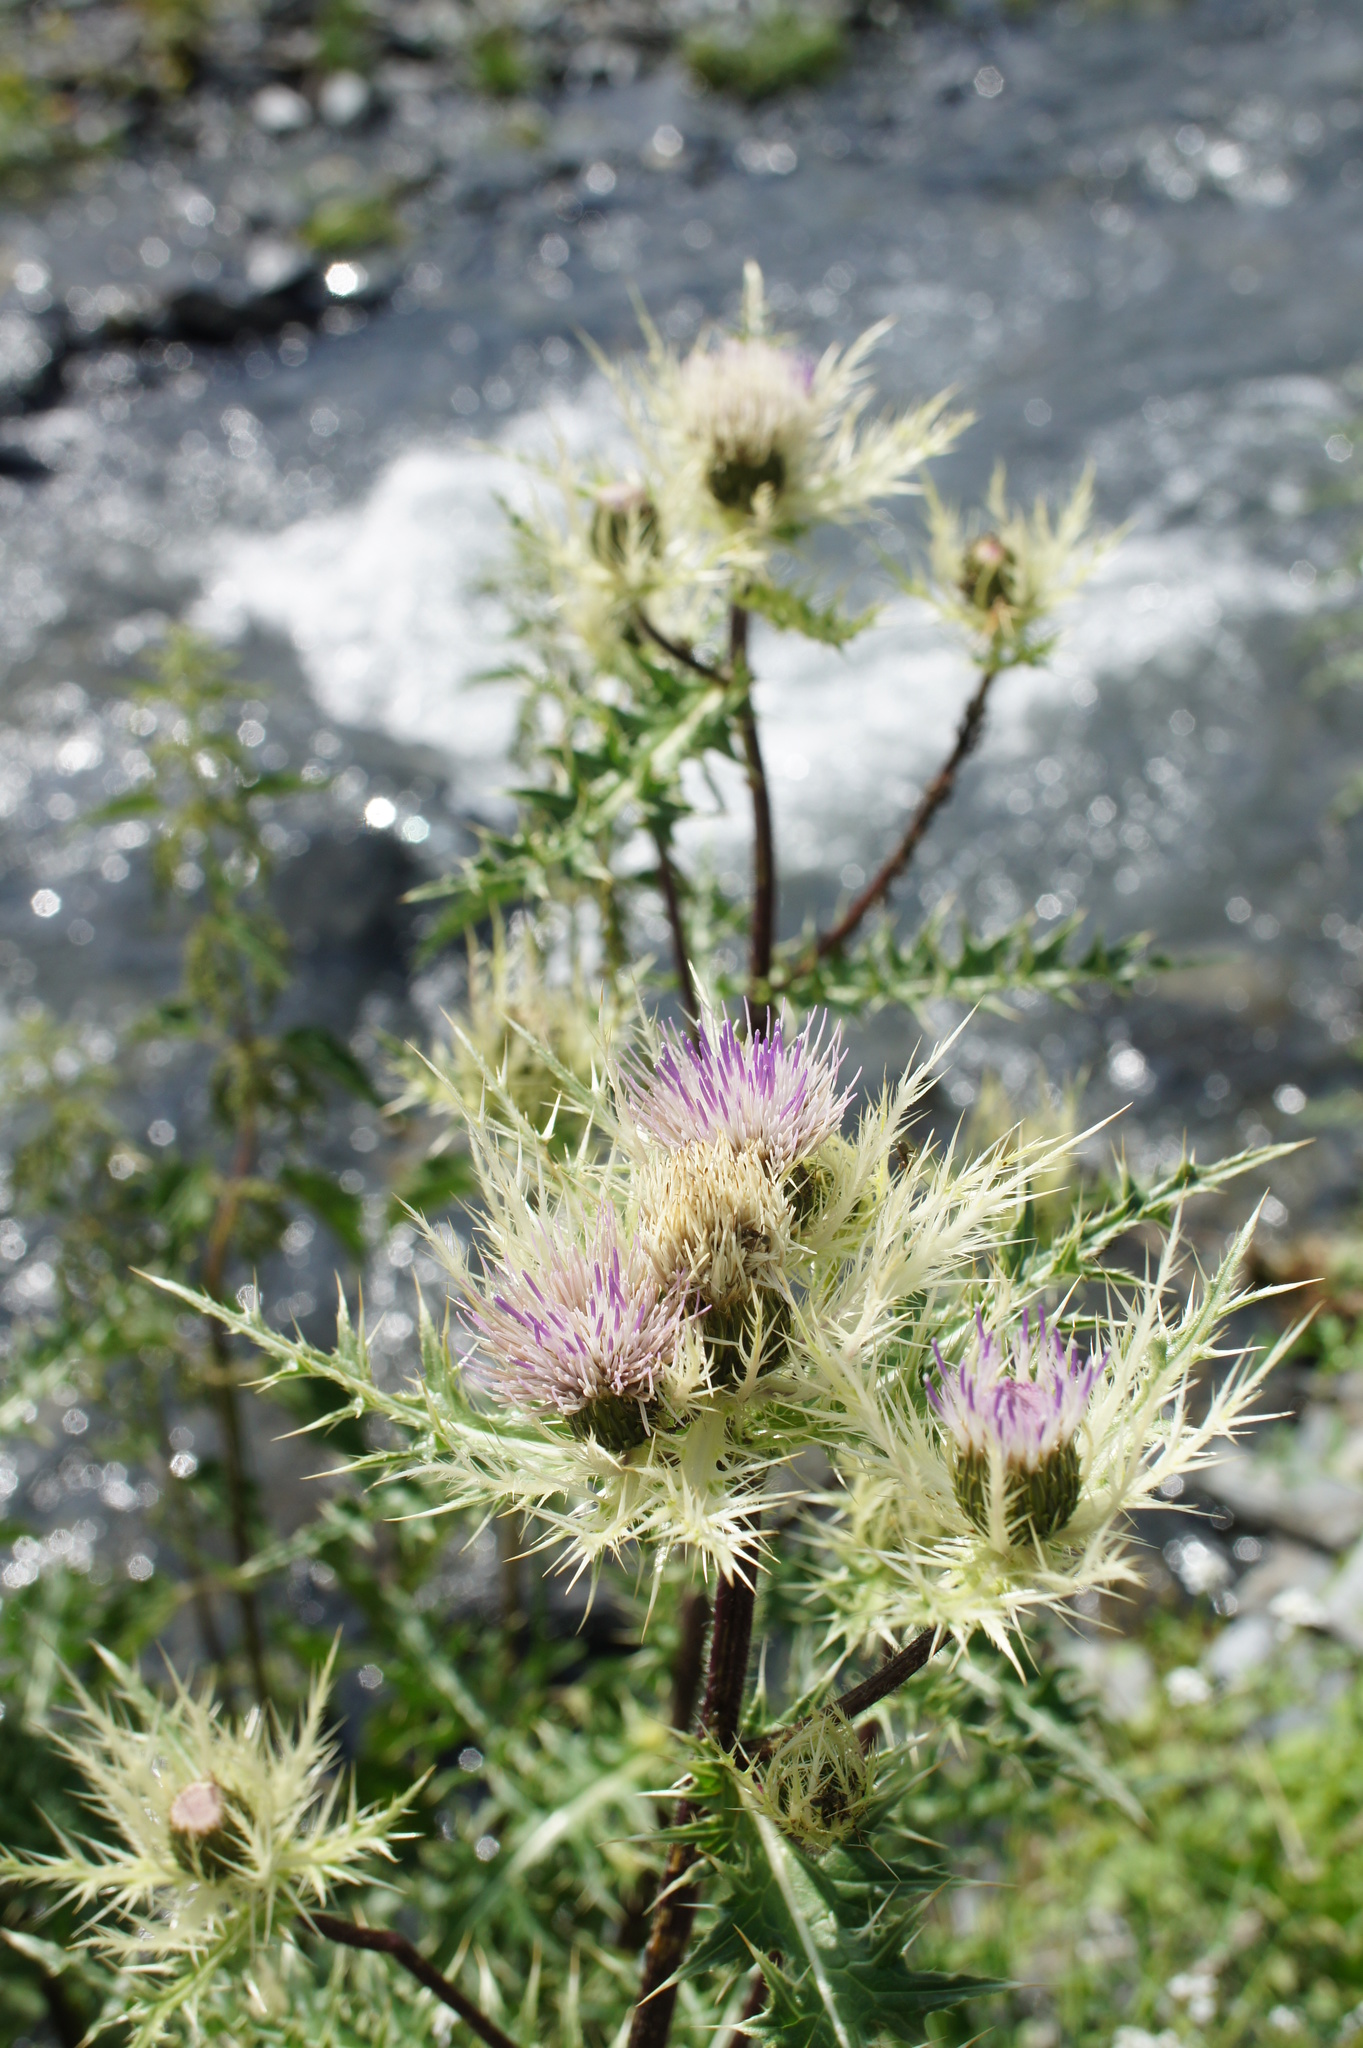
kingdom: Plantae
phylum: Tracheophyta
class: Magnoliopsida
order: Asterales
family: Asteraceae
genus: Cirsium
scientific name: Cirsium obvallatum
